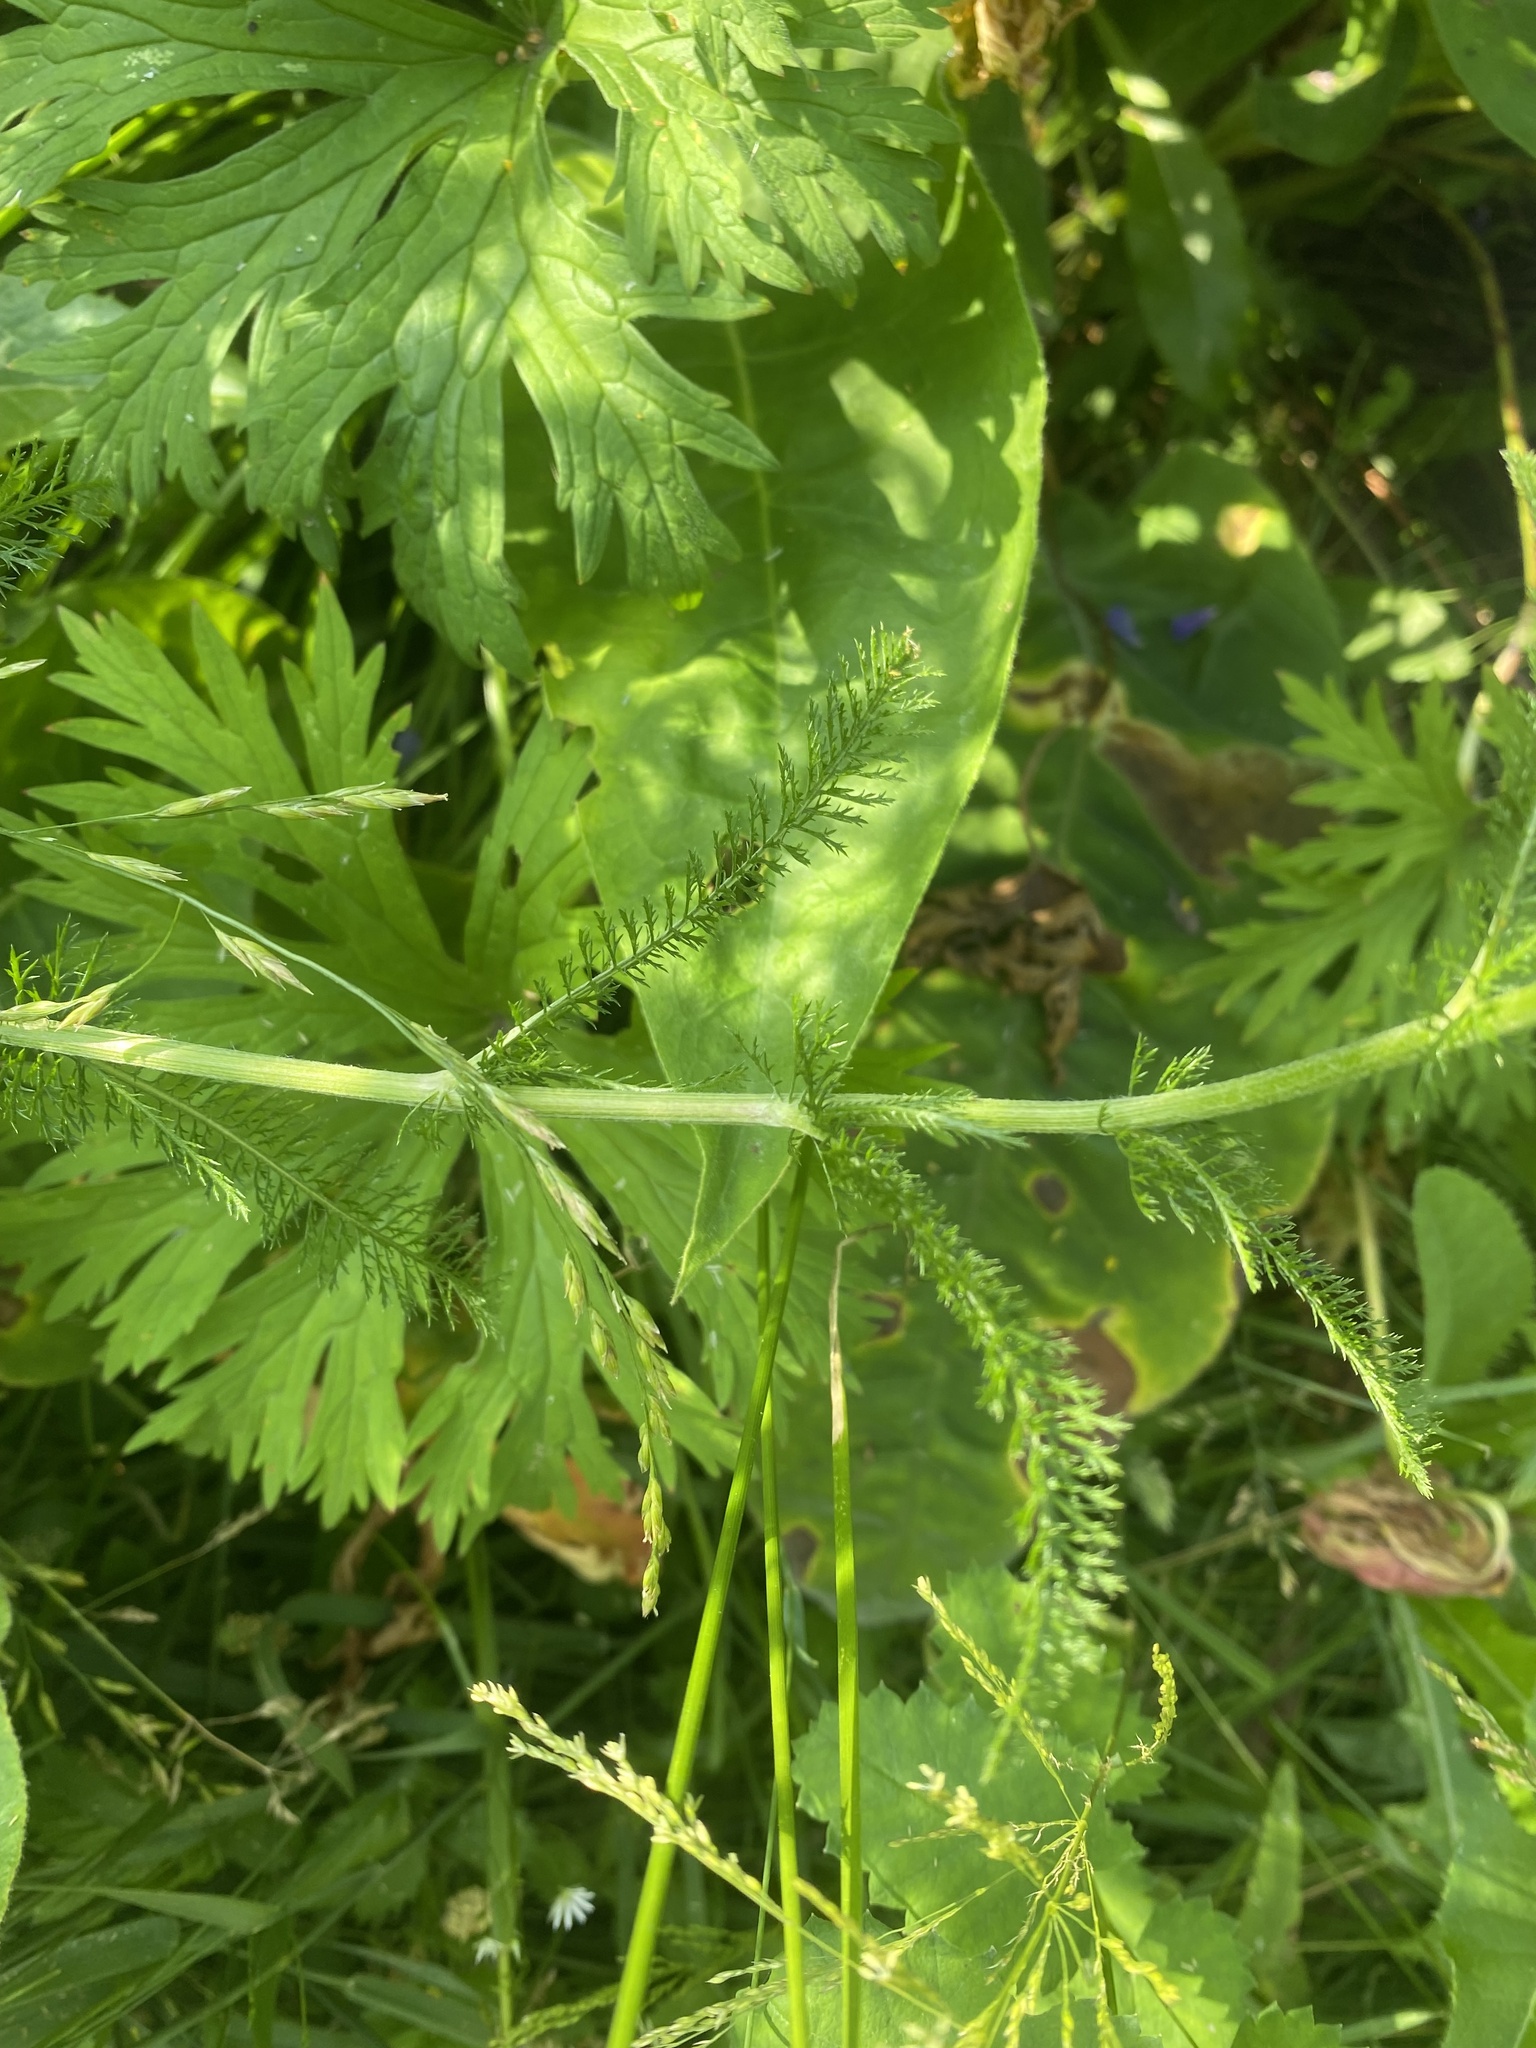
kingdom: Plantae
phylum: Tracheophyta
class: Magnoliopsida
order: Asterales
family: Asteraceae
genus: Achillea
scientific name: Achillea asiatica
